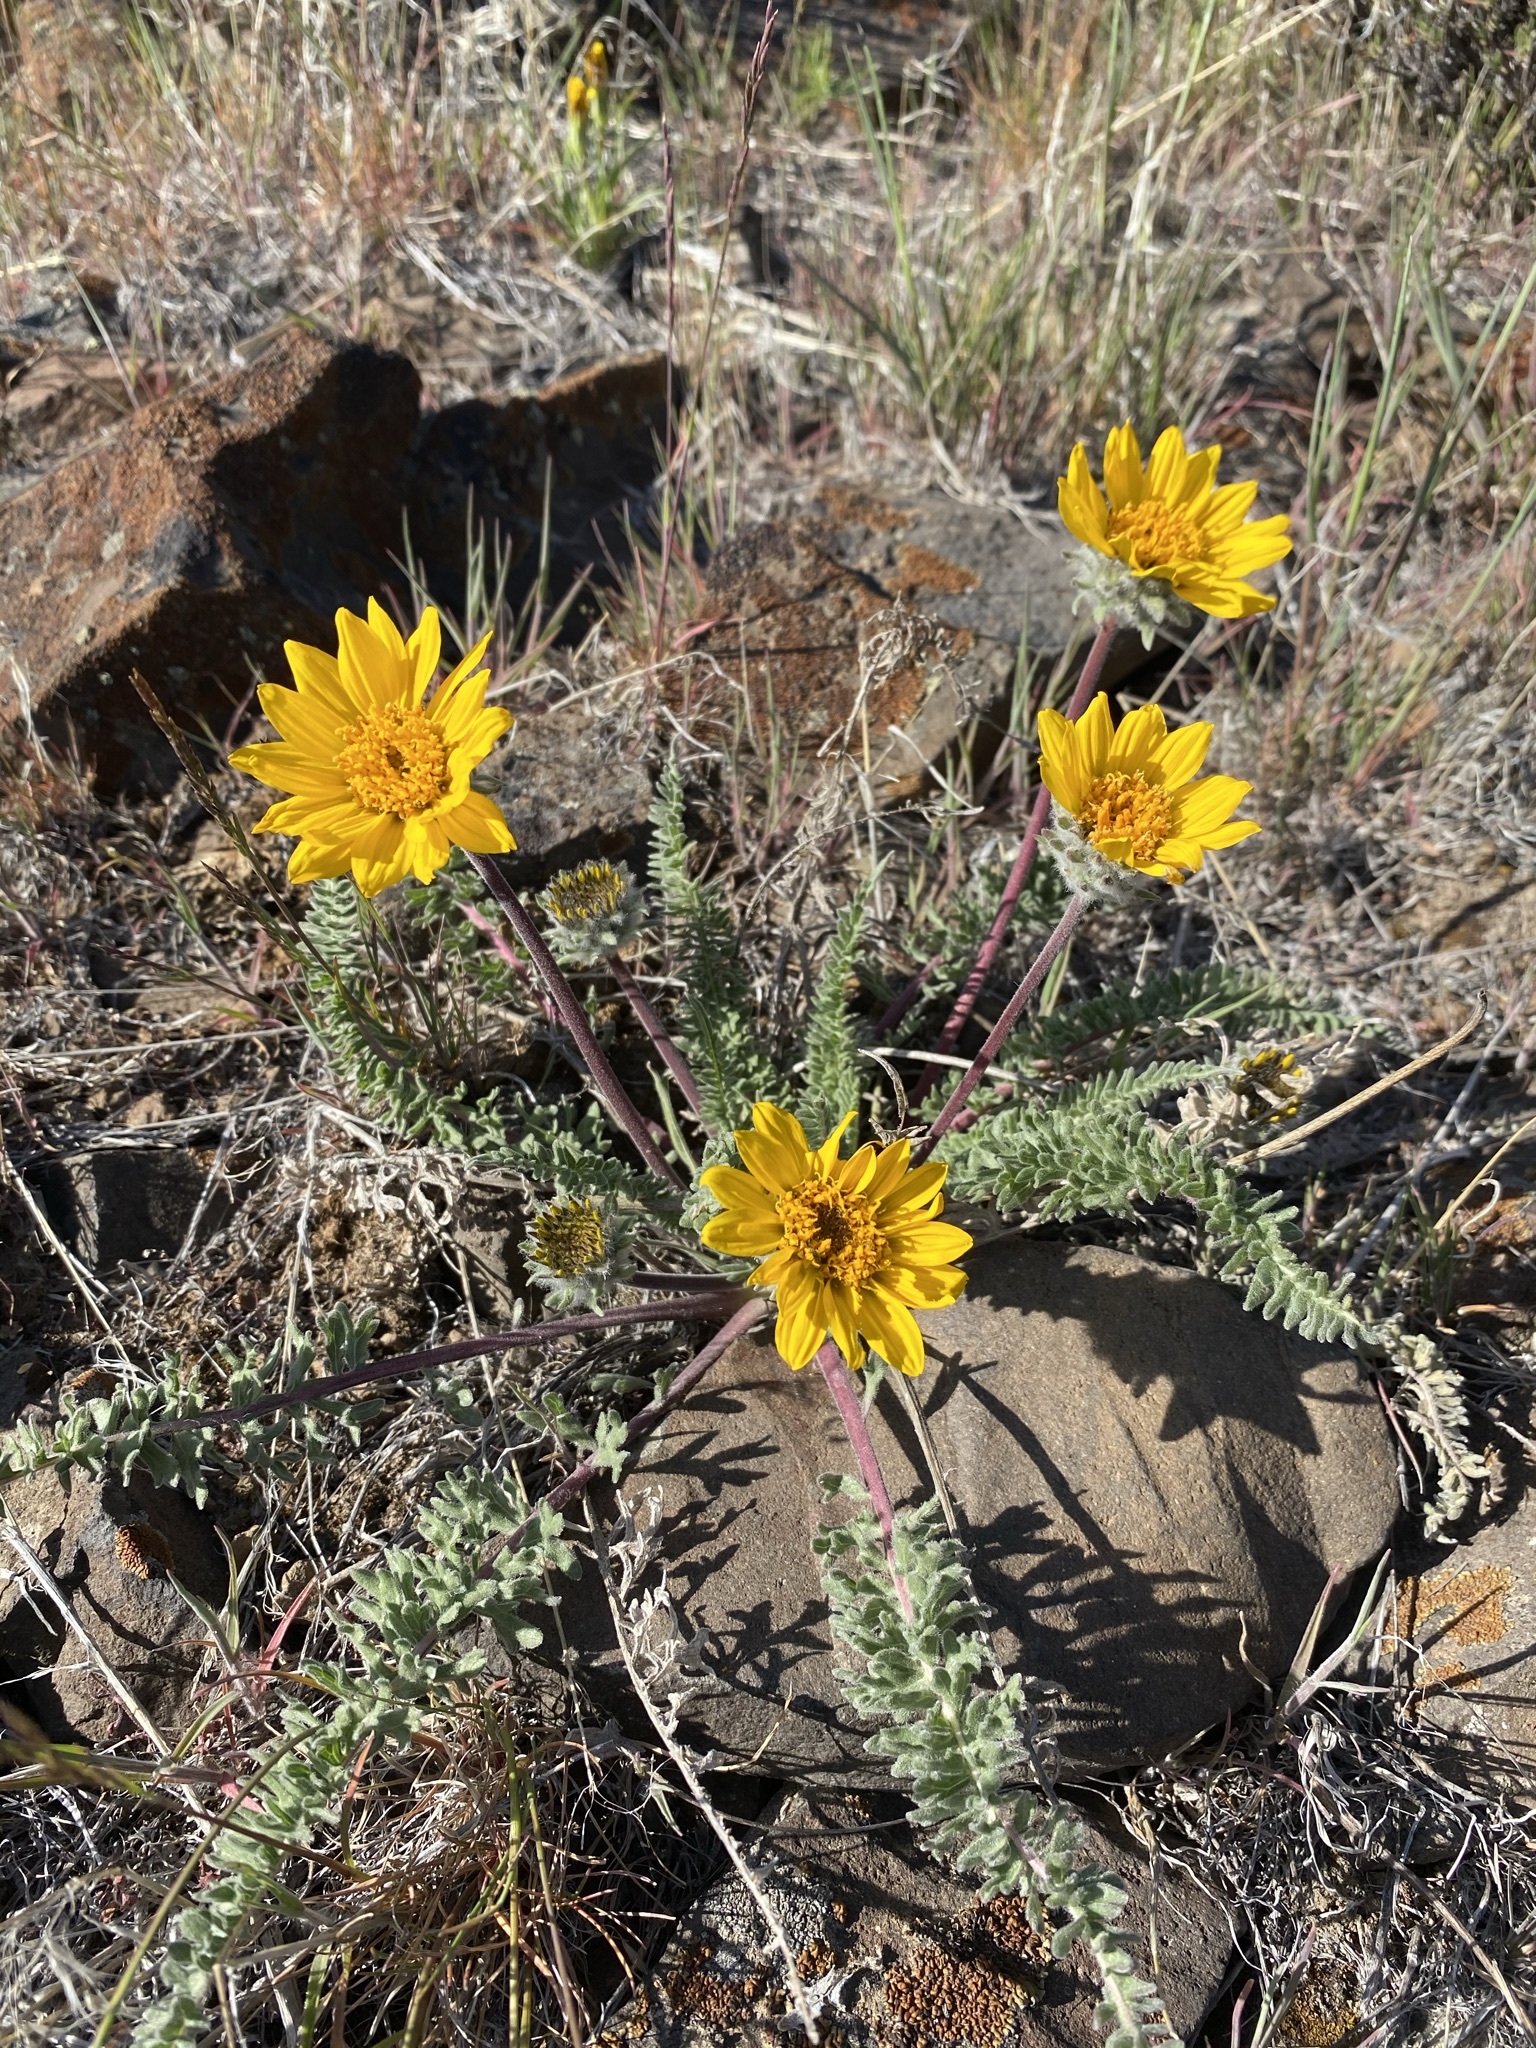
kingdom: Plantae
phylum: Tracheophyta
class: Magnoliopsida
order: Asterales
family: Asteraceae
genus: Balsamorhiza
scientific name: Balsamorhiza hookeri
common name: Hooker's balsamroot
